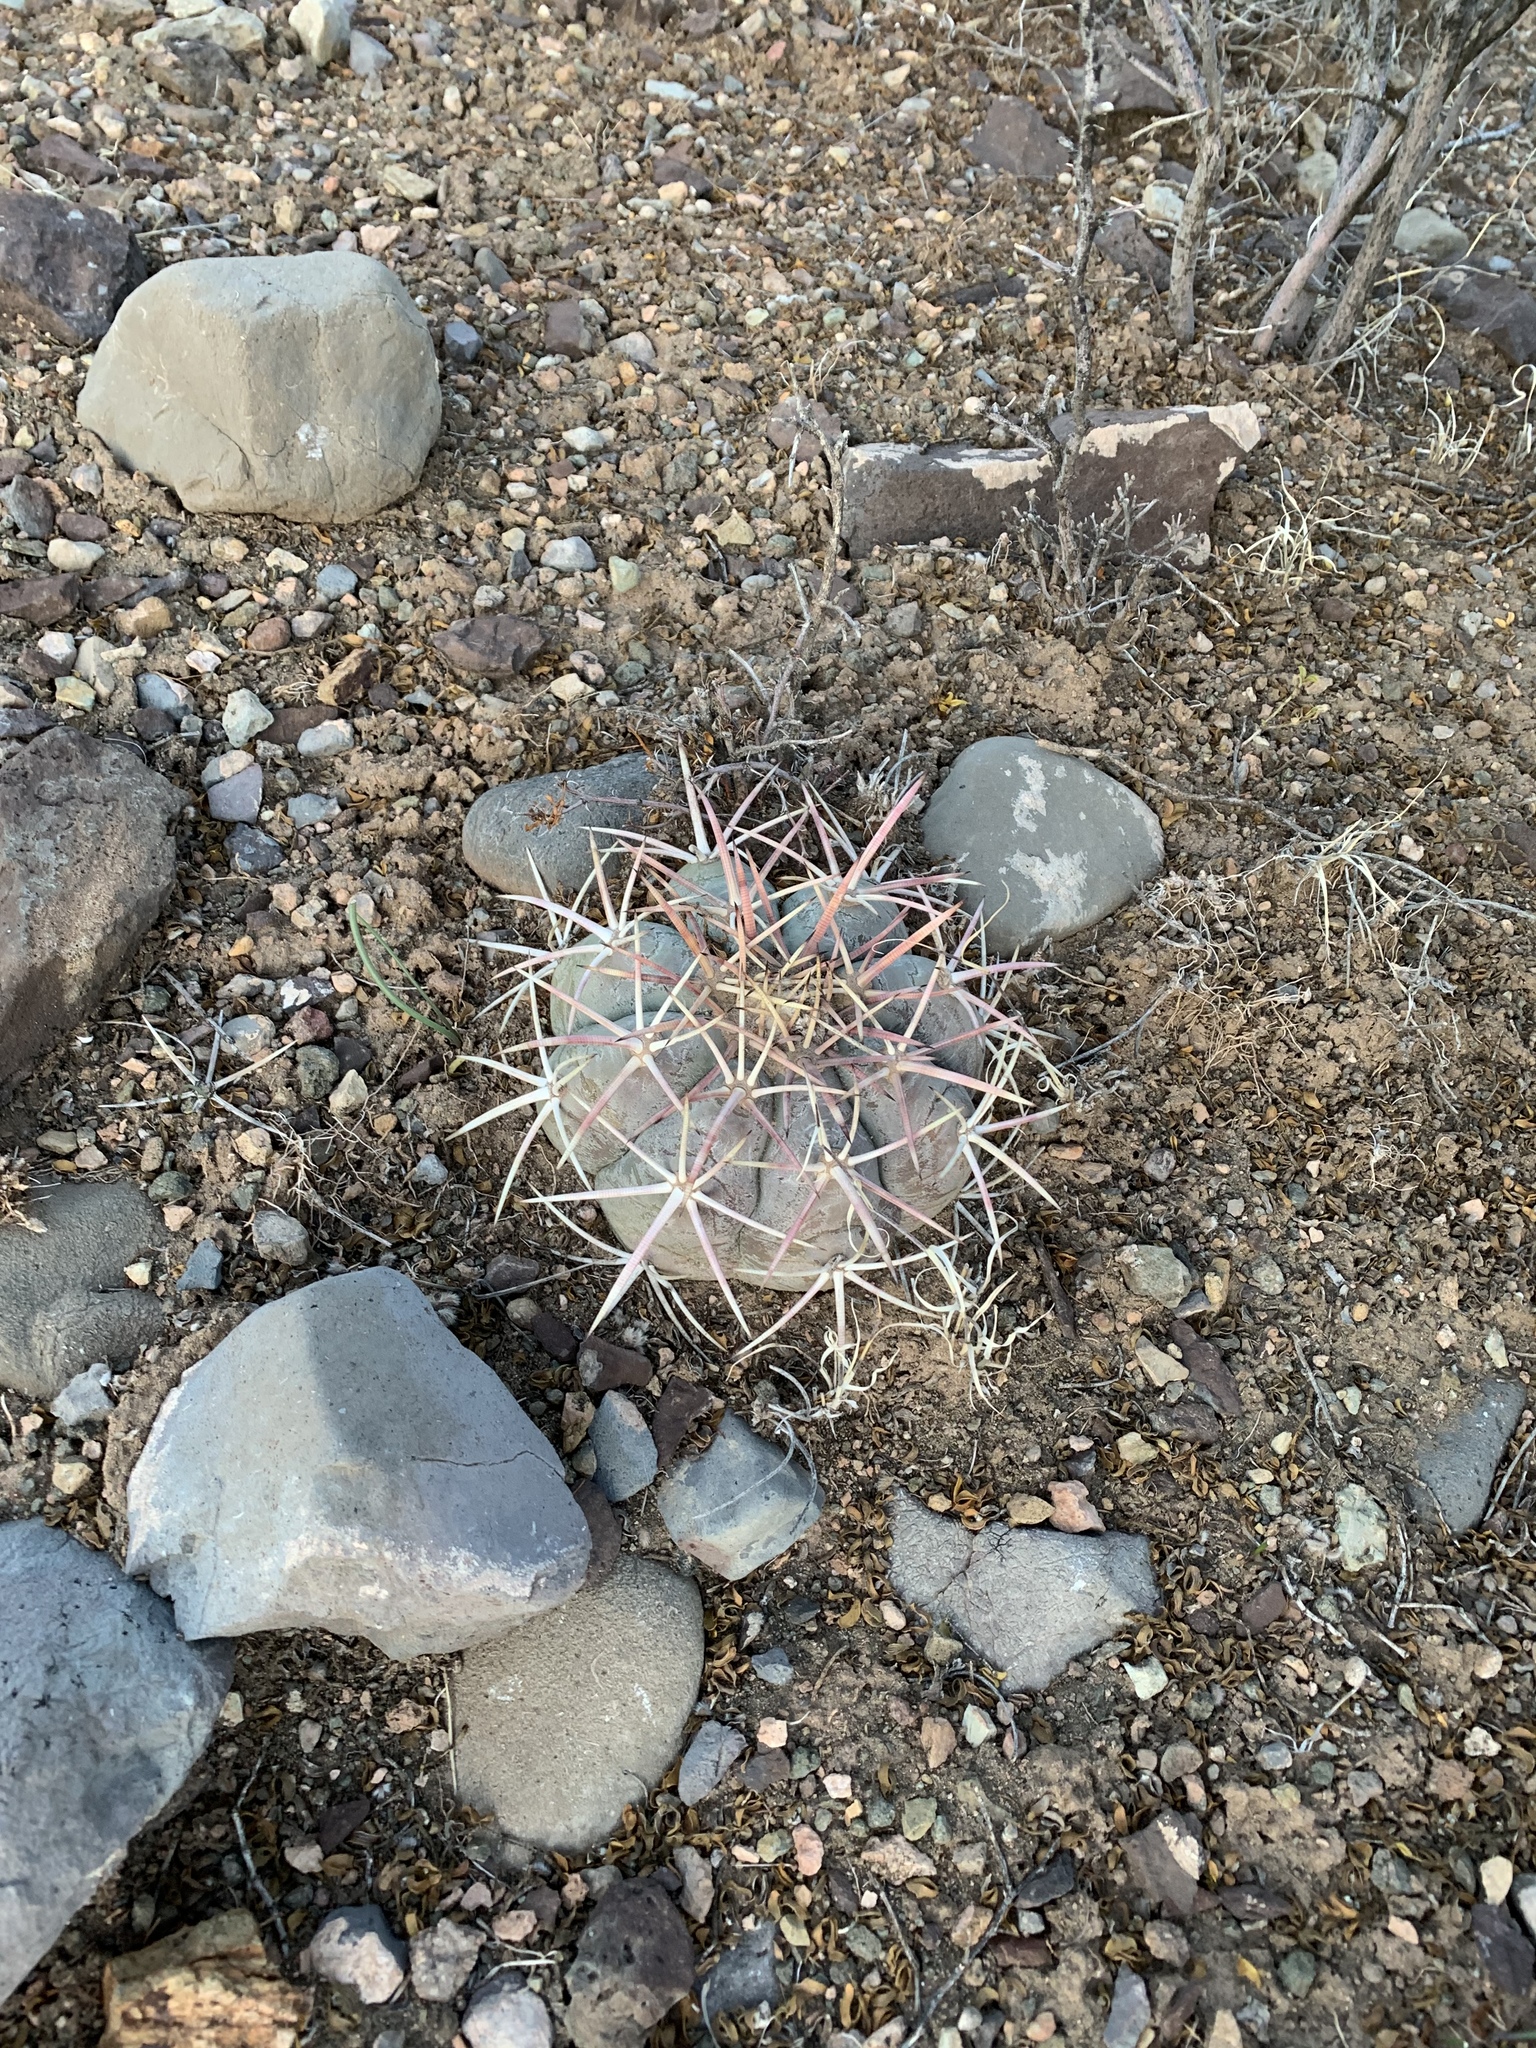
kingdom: Plantae
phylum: Tracheophyta
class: Magnoliopsida
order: Caryophyllales
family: Cactaceae
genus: Echinocactus
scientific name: Echinocactus horizonthalonius
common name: Devilshead
